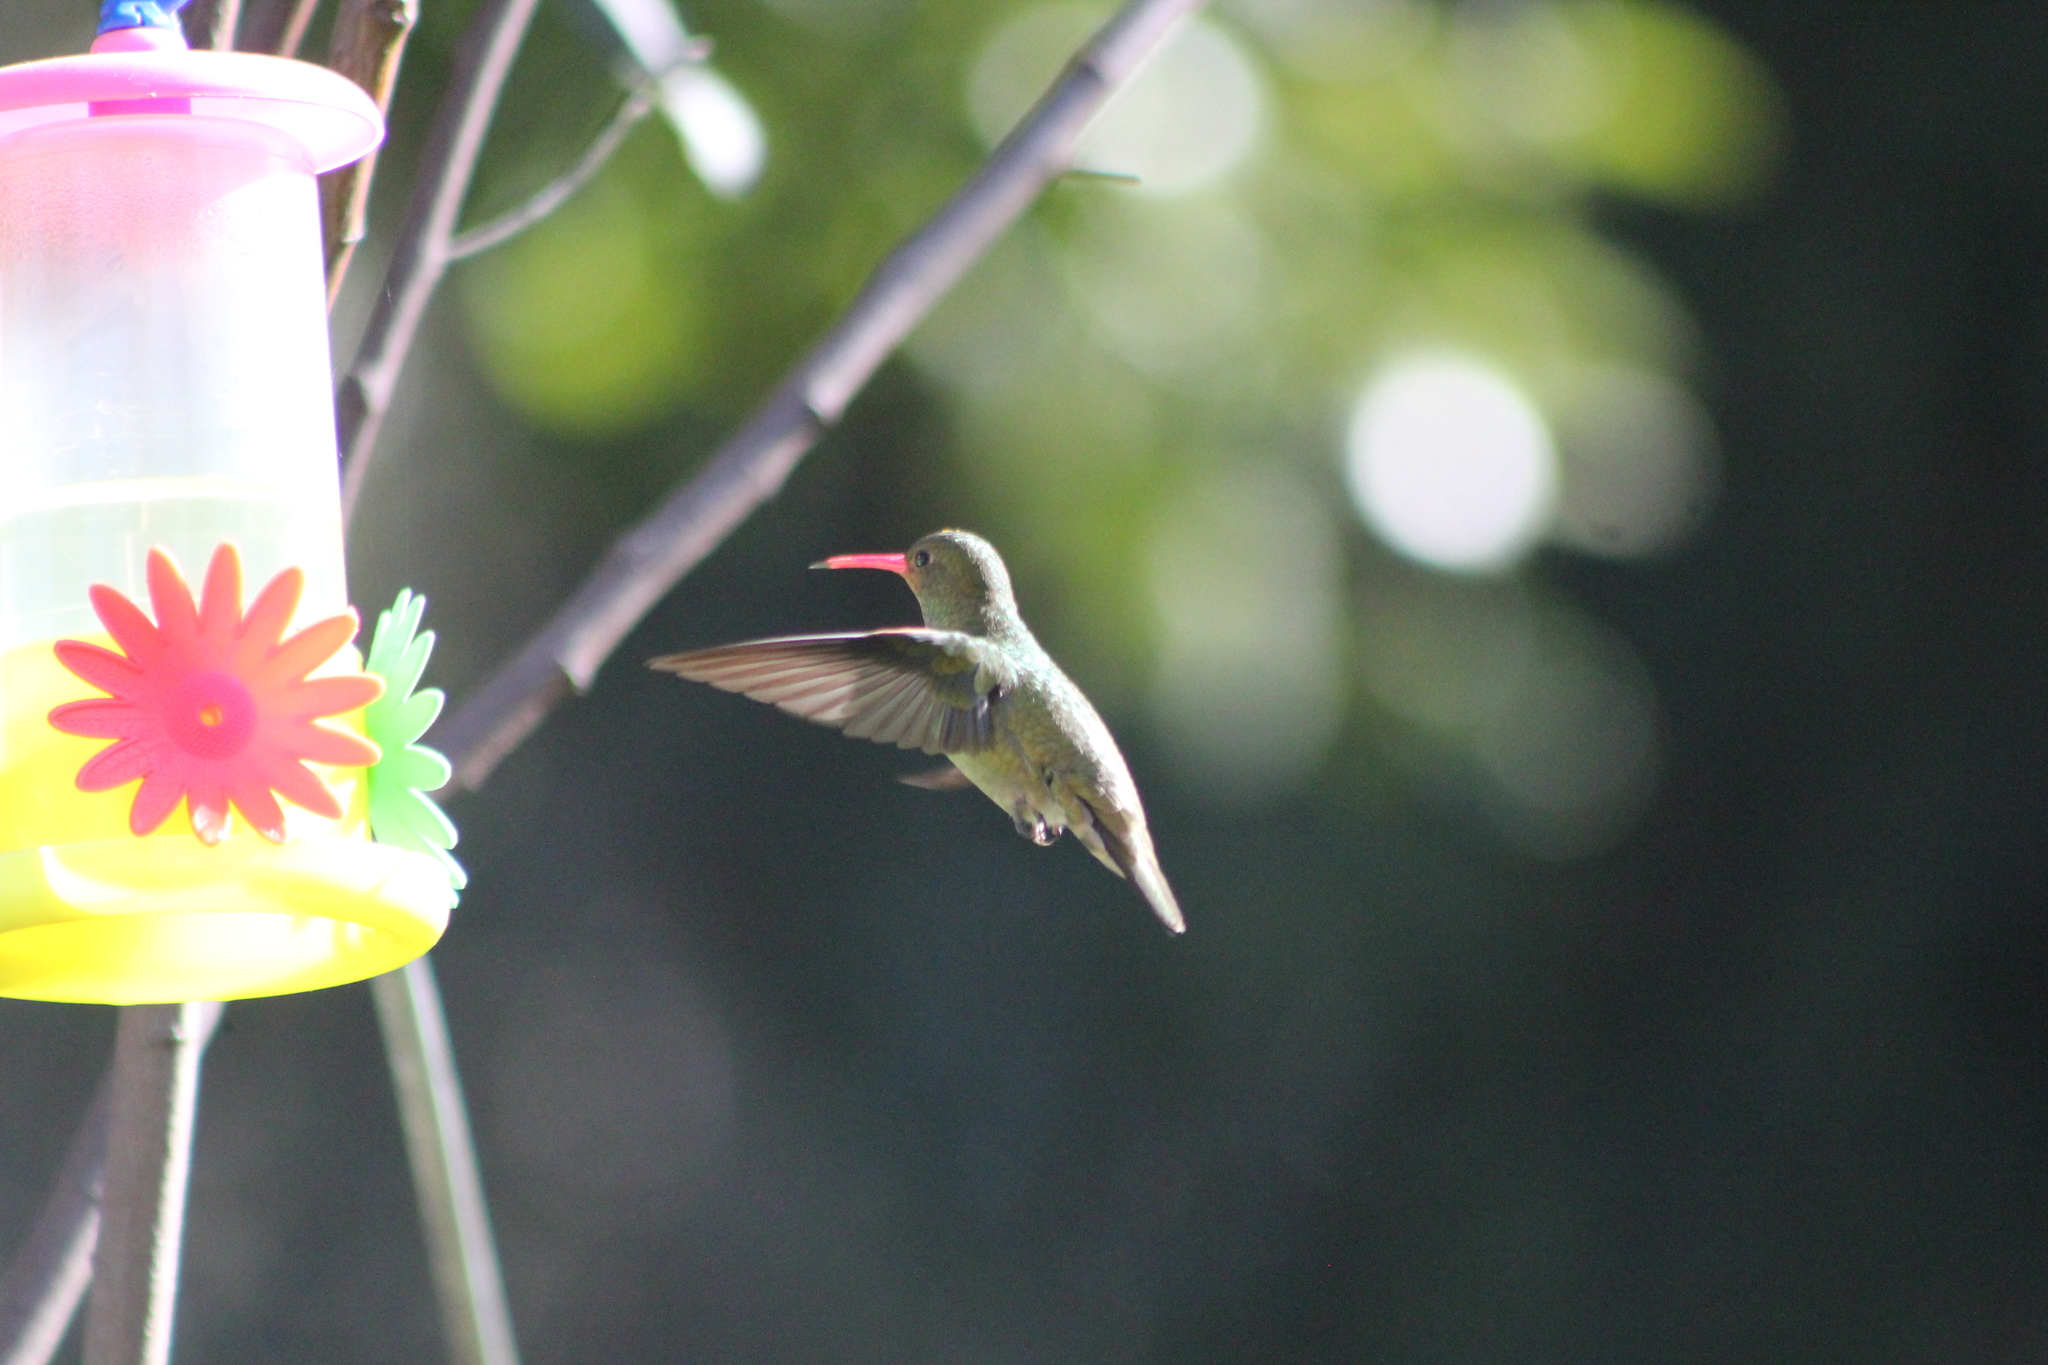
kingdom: Animalia
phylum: Chordata
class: Aves
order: Apodiformes
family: Trochilidae
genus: Hylocharis
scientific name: Hylocharis chrysura
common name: Gilded sapphire
